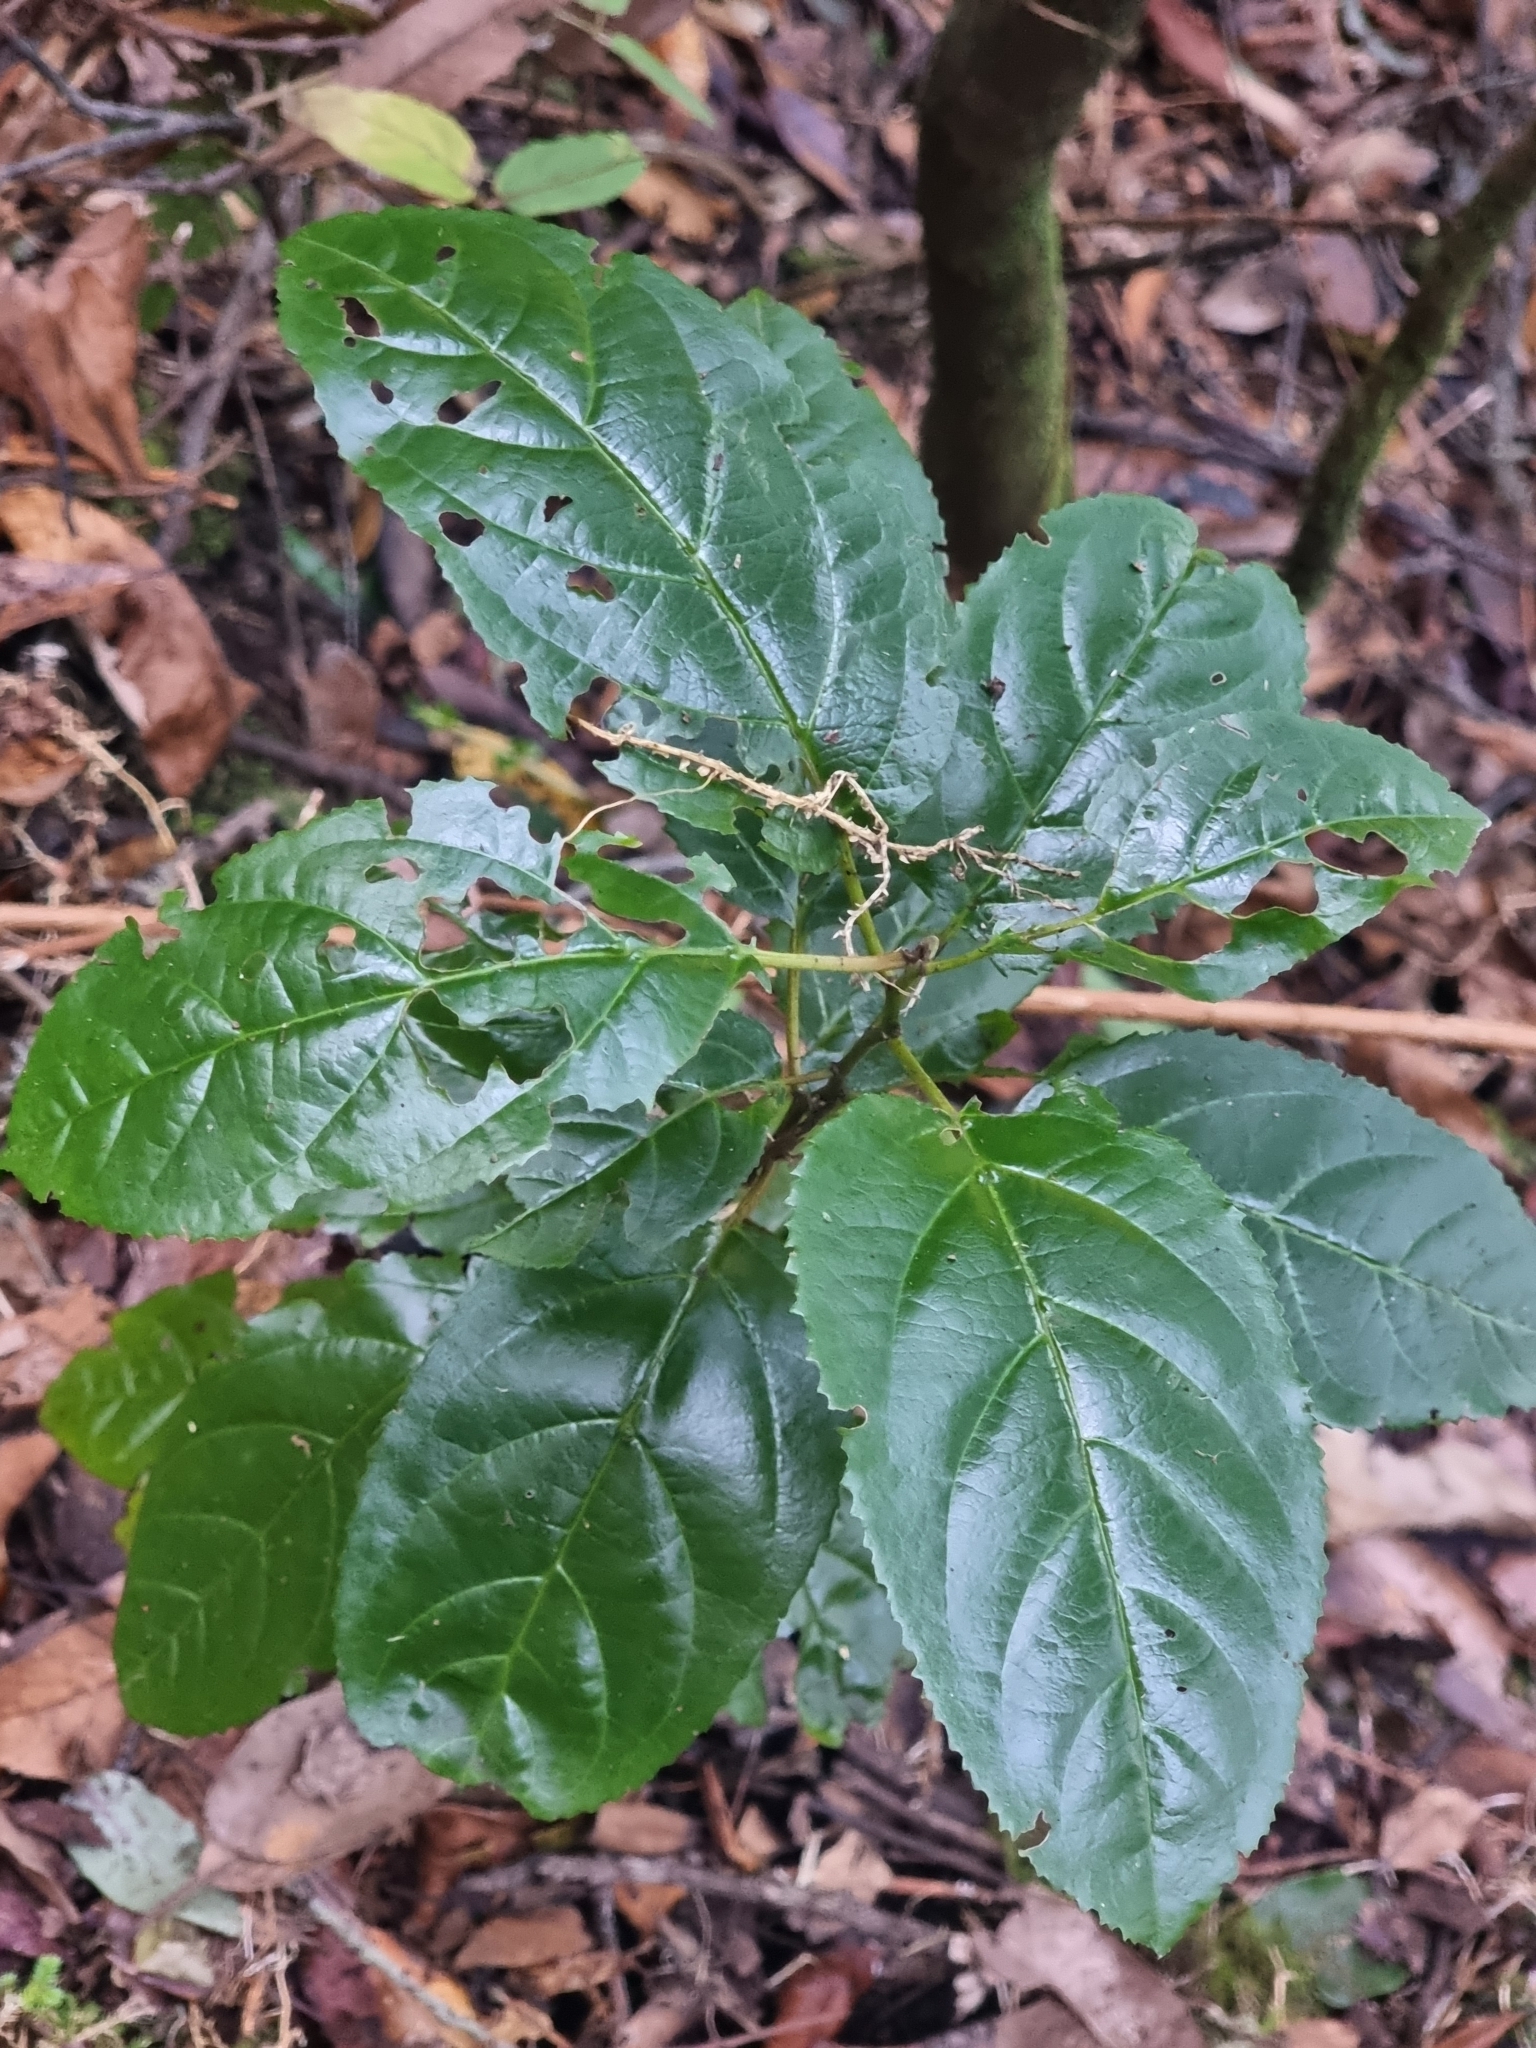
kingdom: Plantae
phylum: Tracheophyta
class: Magnoliopsida
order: Rosales
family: Rhamnaceae
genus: Rhamnus
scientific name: Rhamnus glandulosa
